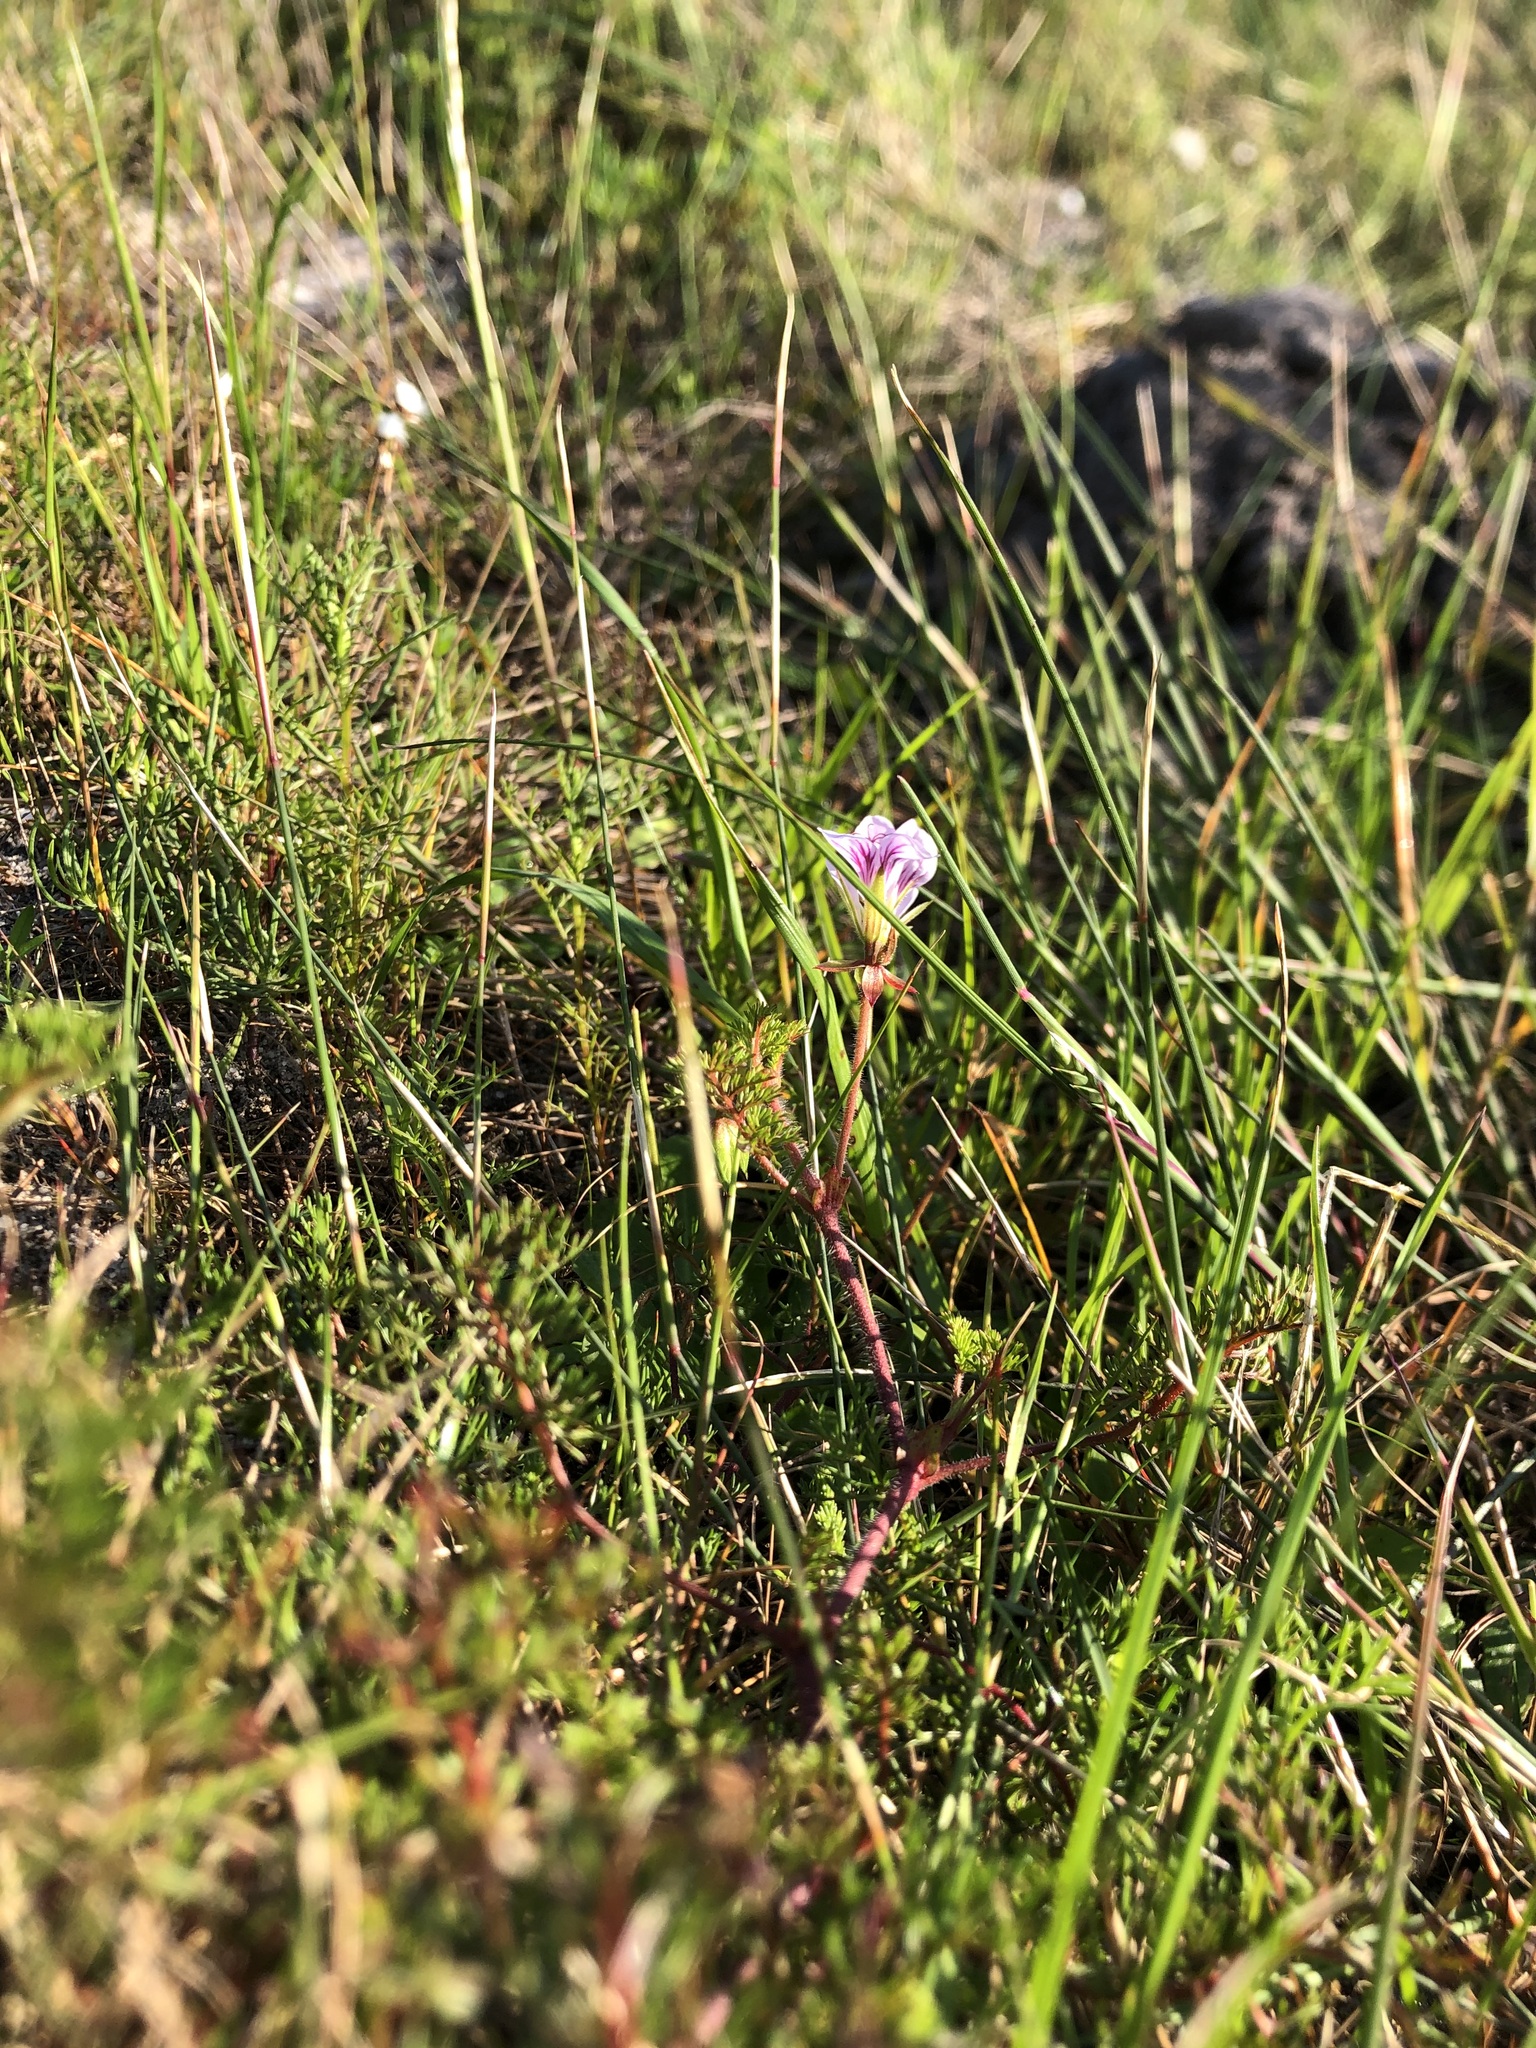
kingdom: Plantae
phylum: Tracheophyta
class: Magnoliopsida
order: Geraniales
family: Geraniaceae
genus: Pelargonium
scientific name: Pelargonium myrrhifolium
